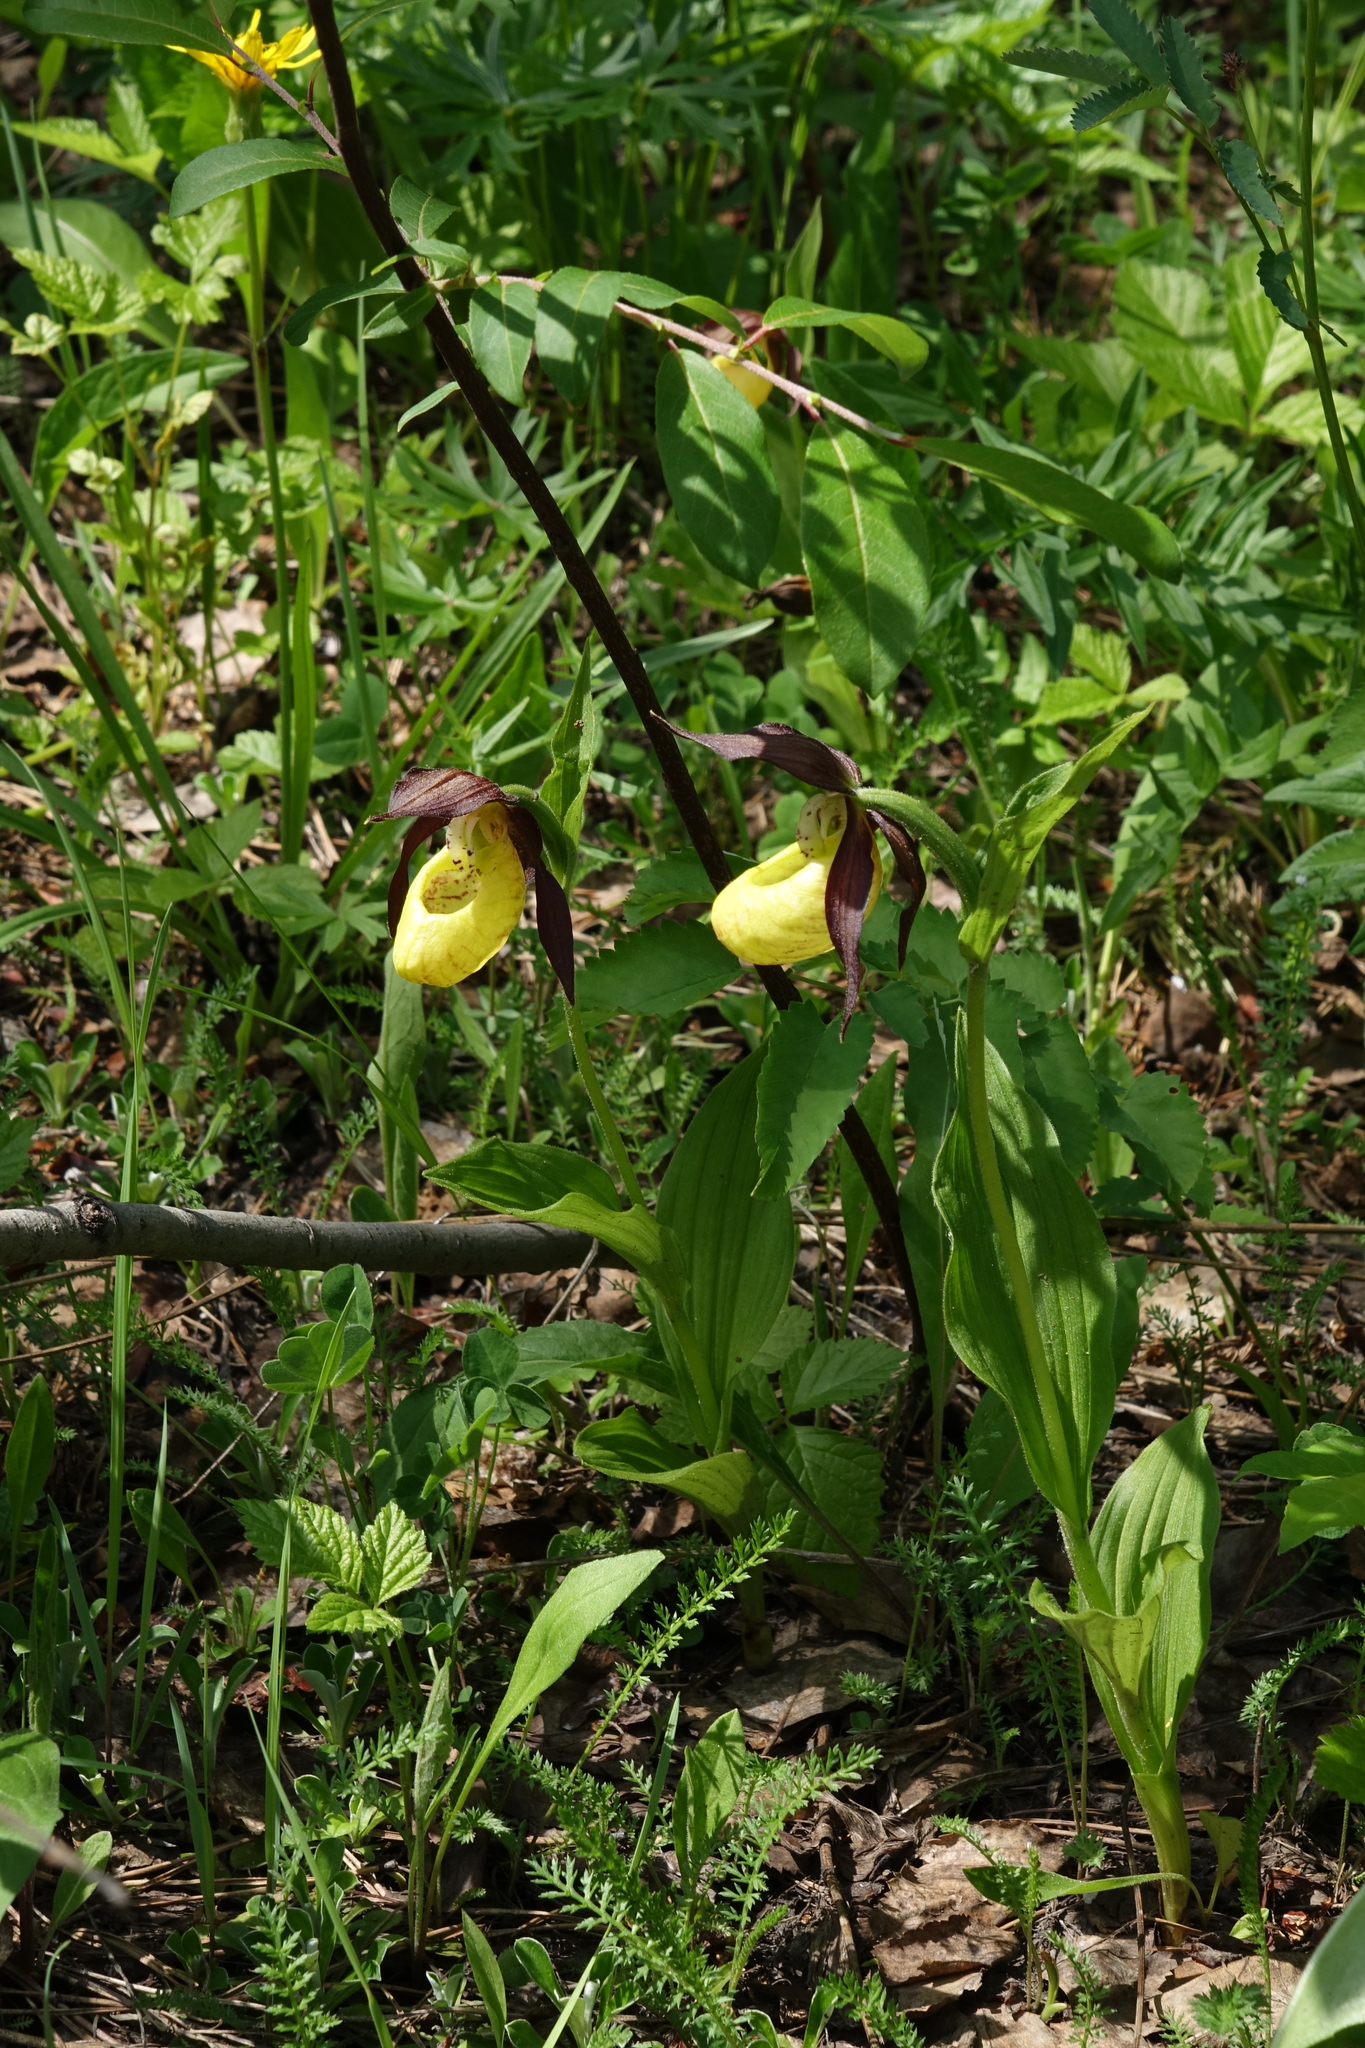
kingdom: Plantae
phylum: Tracheophyta
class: Liliopsida
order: Asparagales
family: Orchidaceae
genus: Cypripedium
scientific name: Cypripedium calceolus
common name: Lady's-slipper
